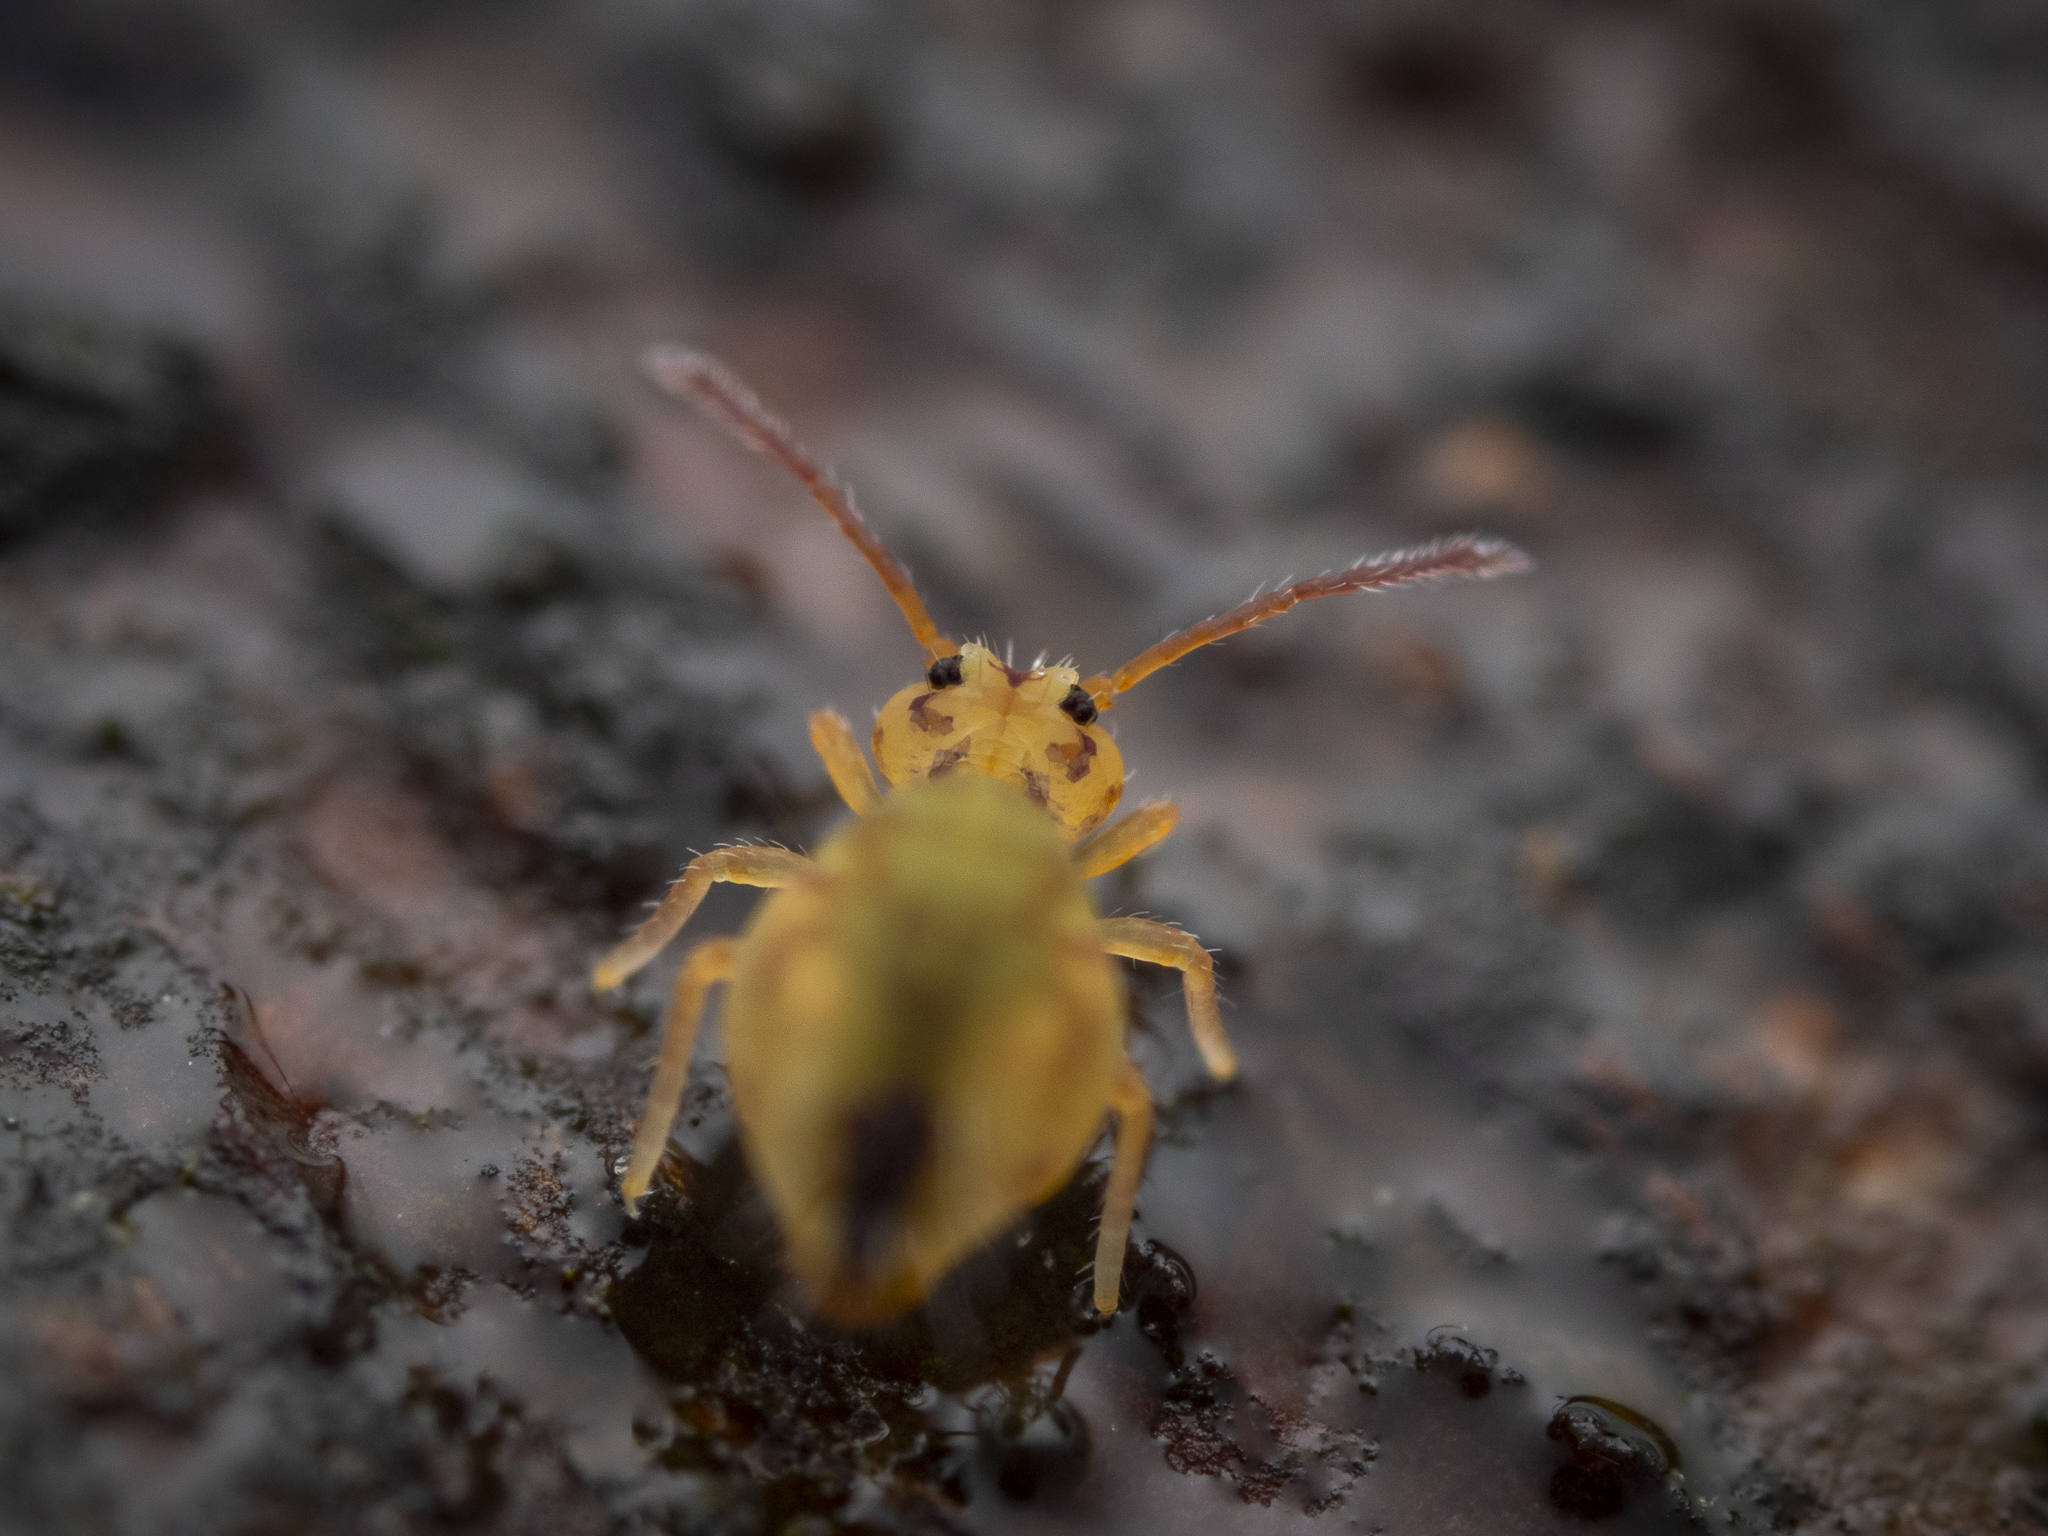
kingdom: Animalia
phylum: Arthropoda
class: Collembola
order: Symphypleona
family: Dicyrtomidae
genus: Dicyrtomina
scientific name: Dicyrtomina ornata
